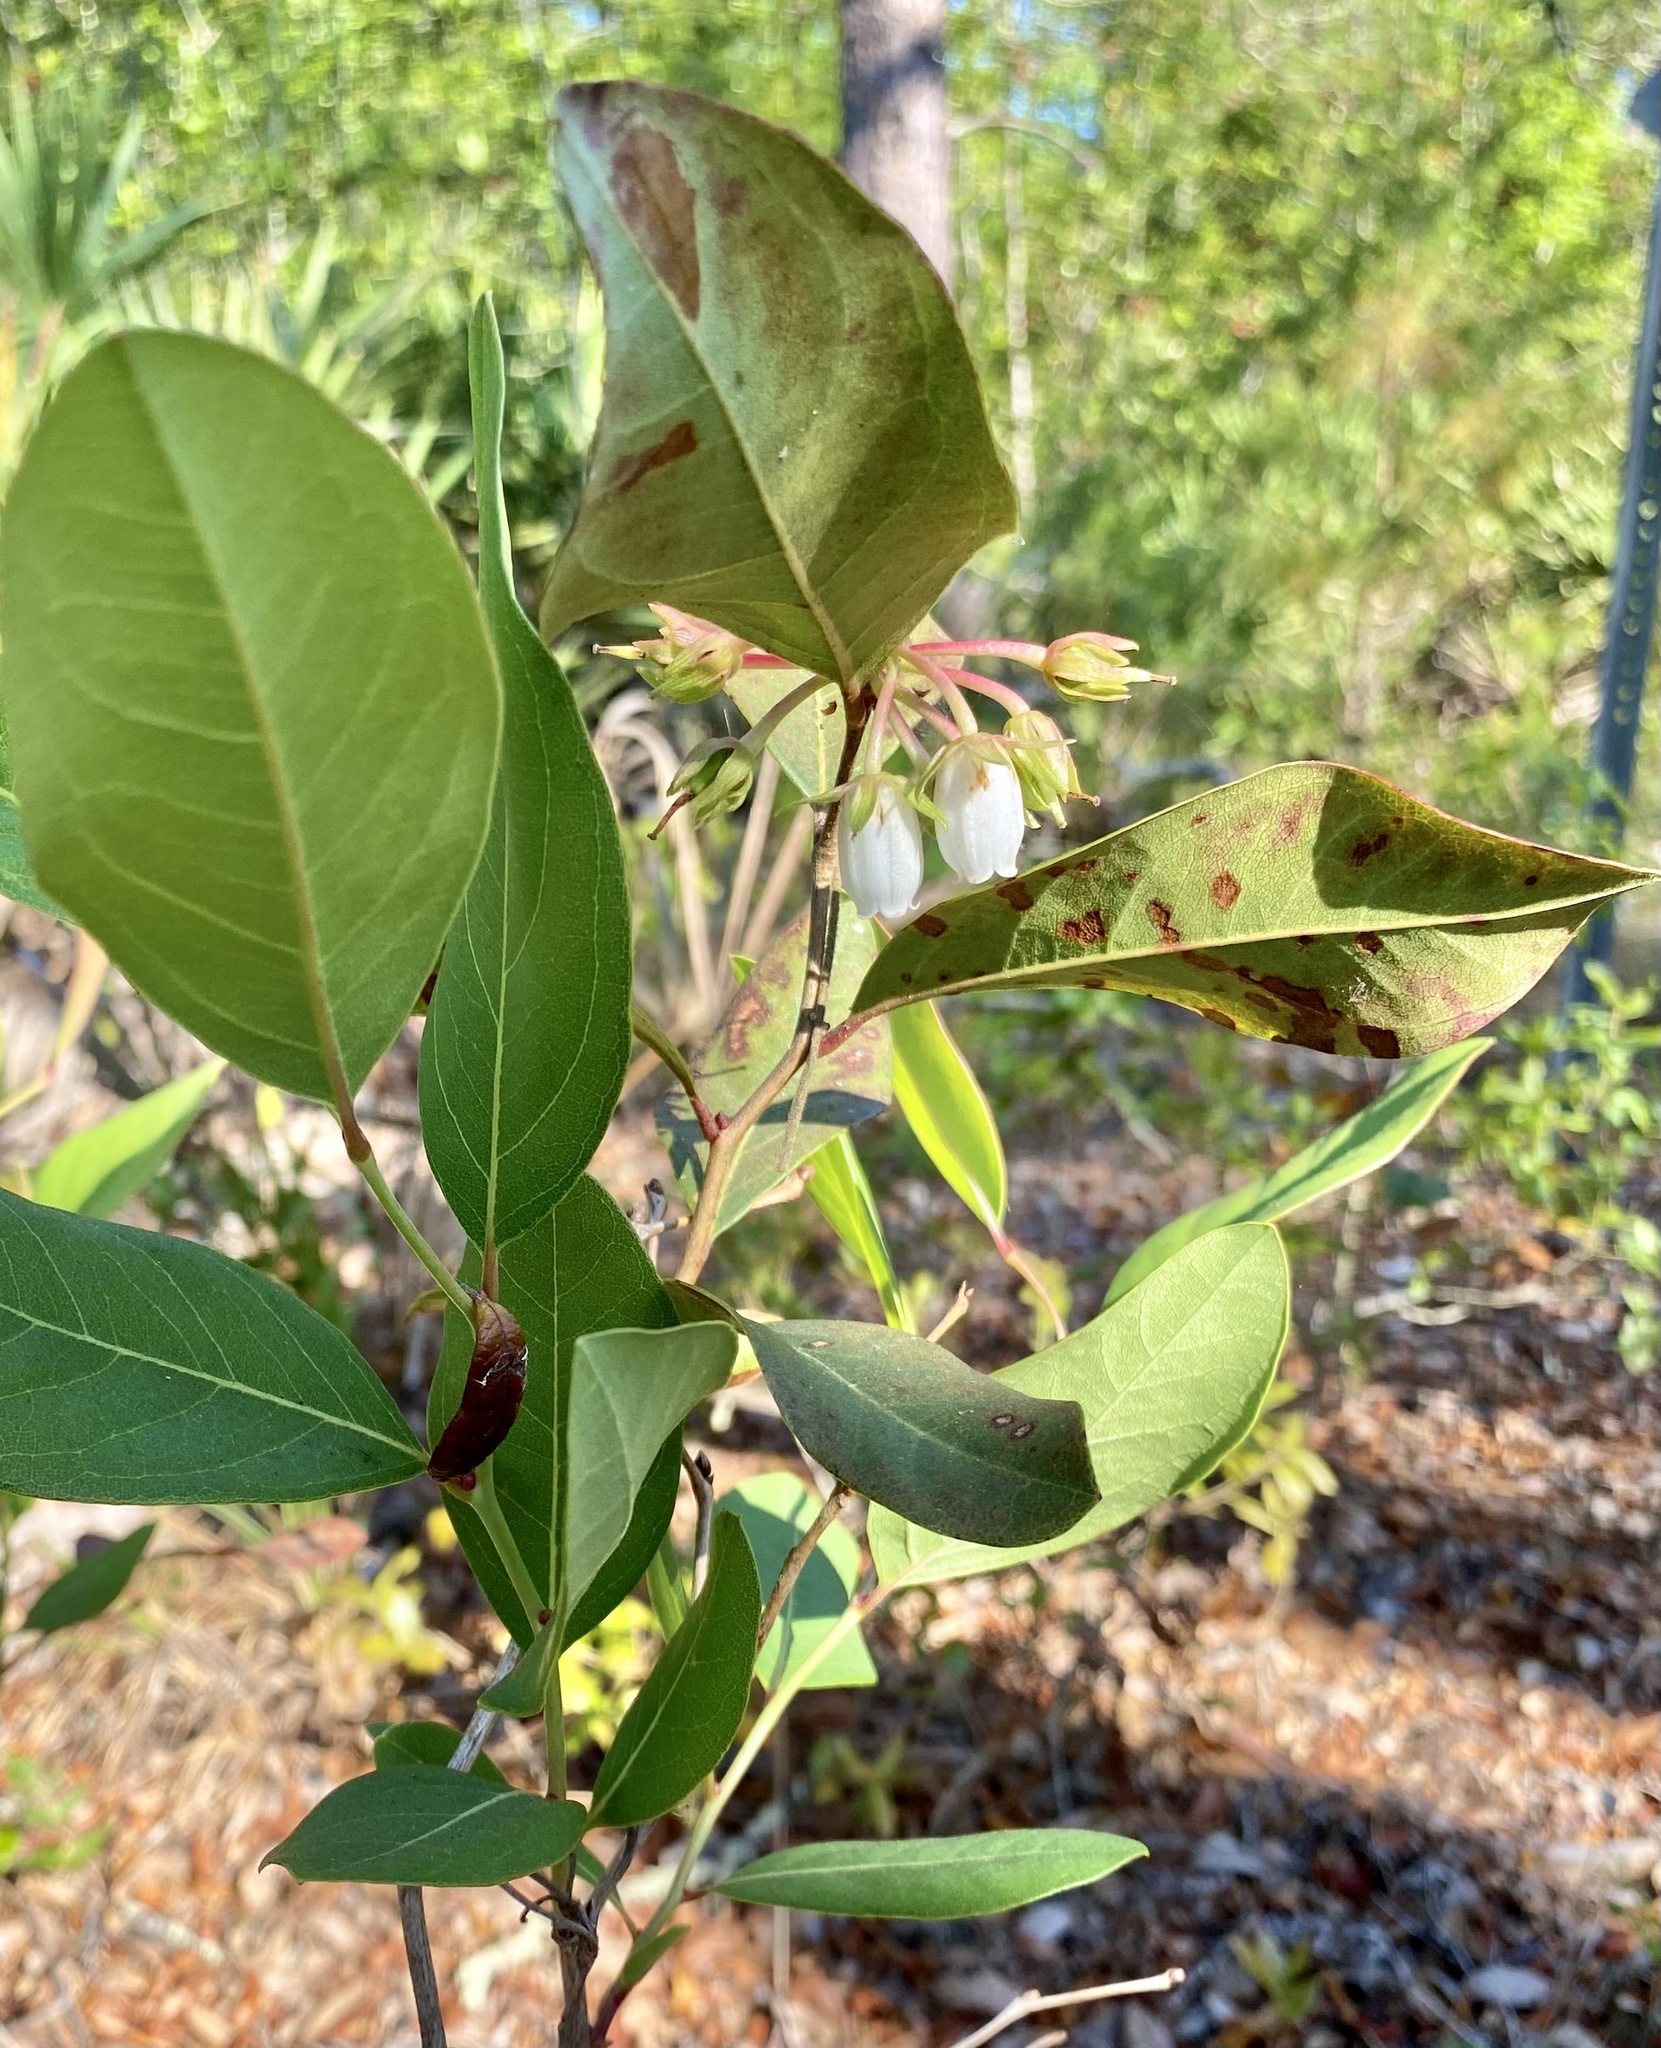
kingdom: Plantae
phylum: Tracheophyta
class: Magnoliopsida
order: Ericales
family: Ericaceae
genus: Lyonia
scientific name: Lyonia mariana
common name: Staggerbush
